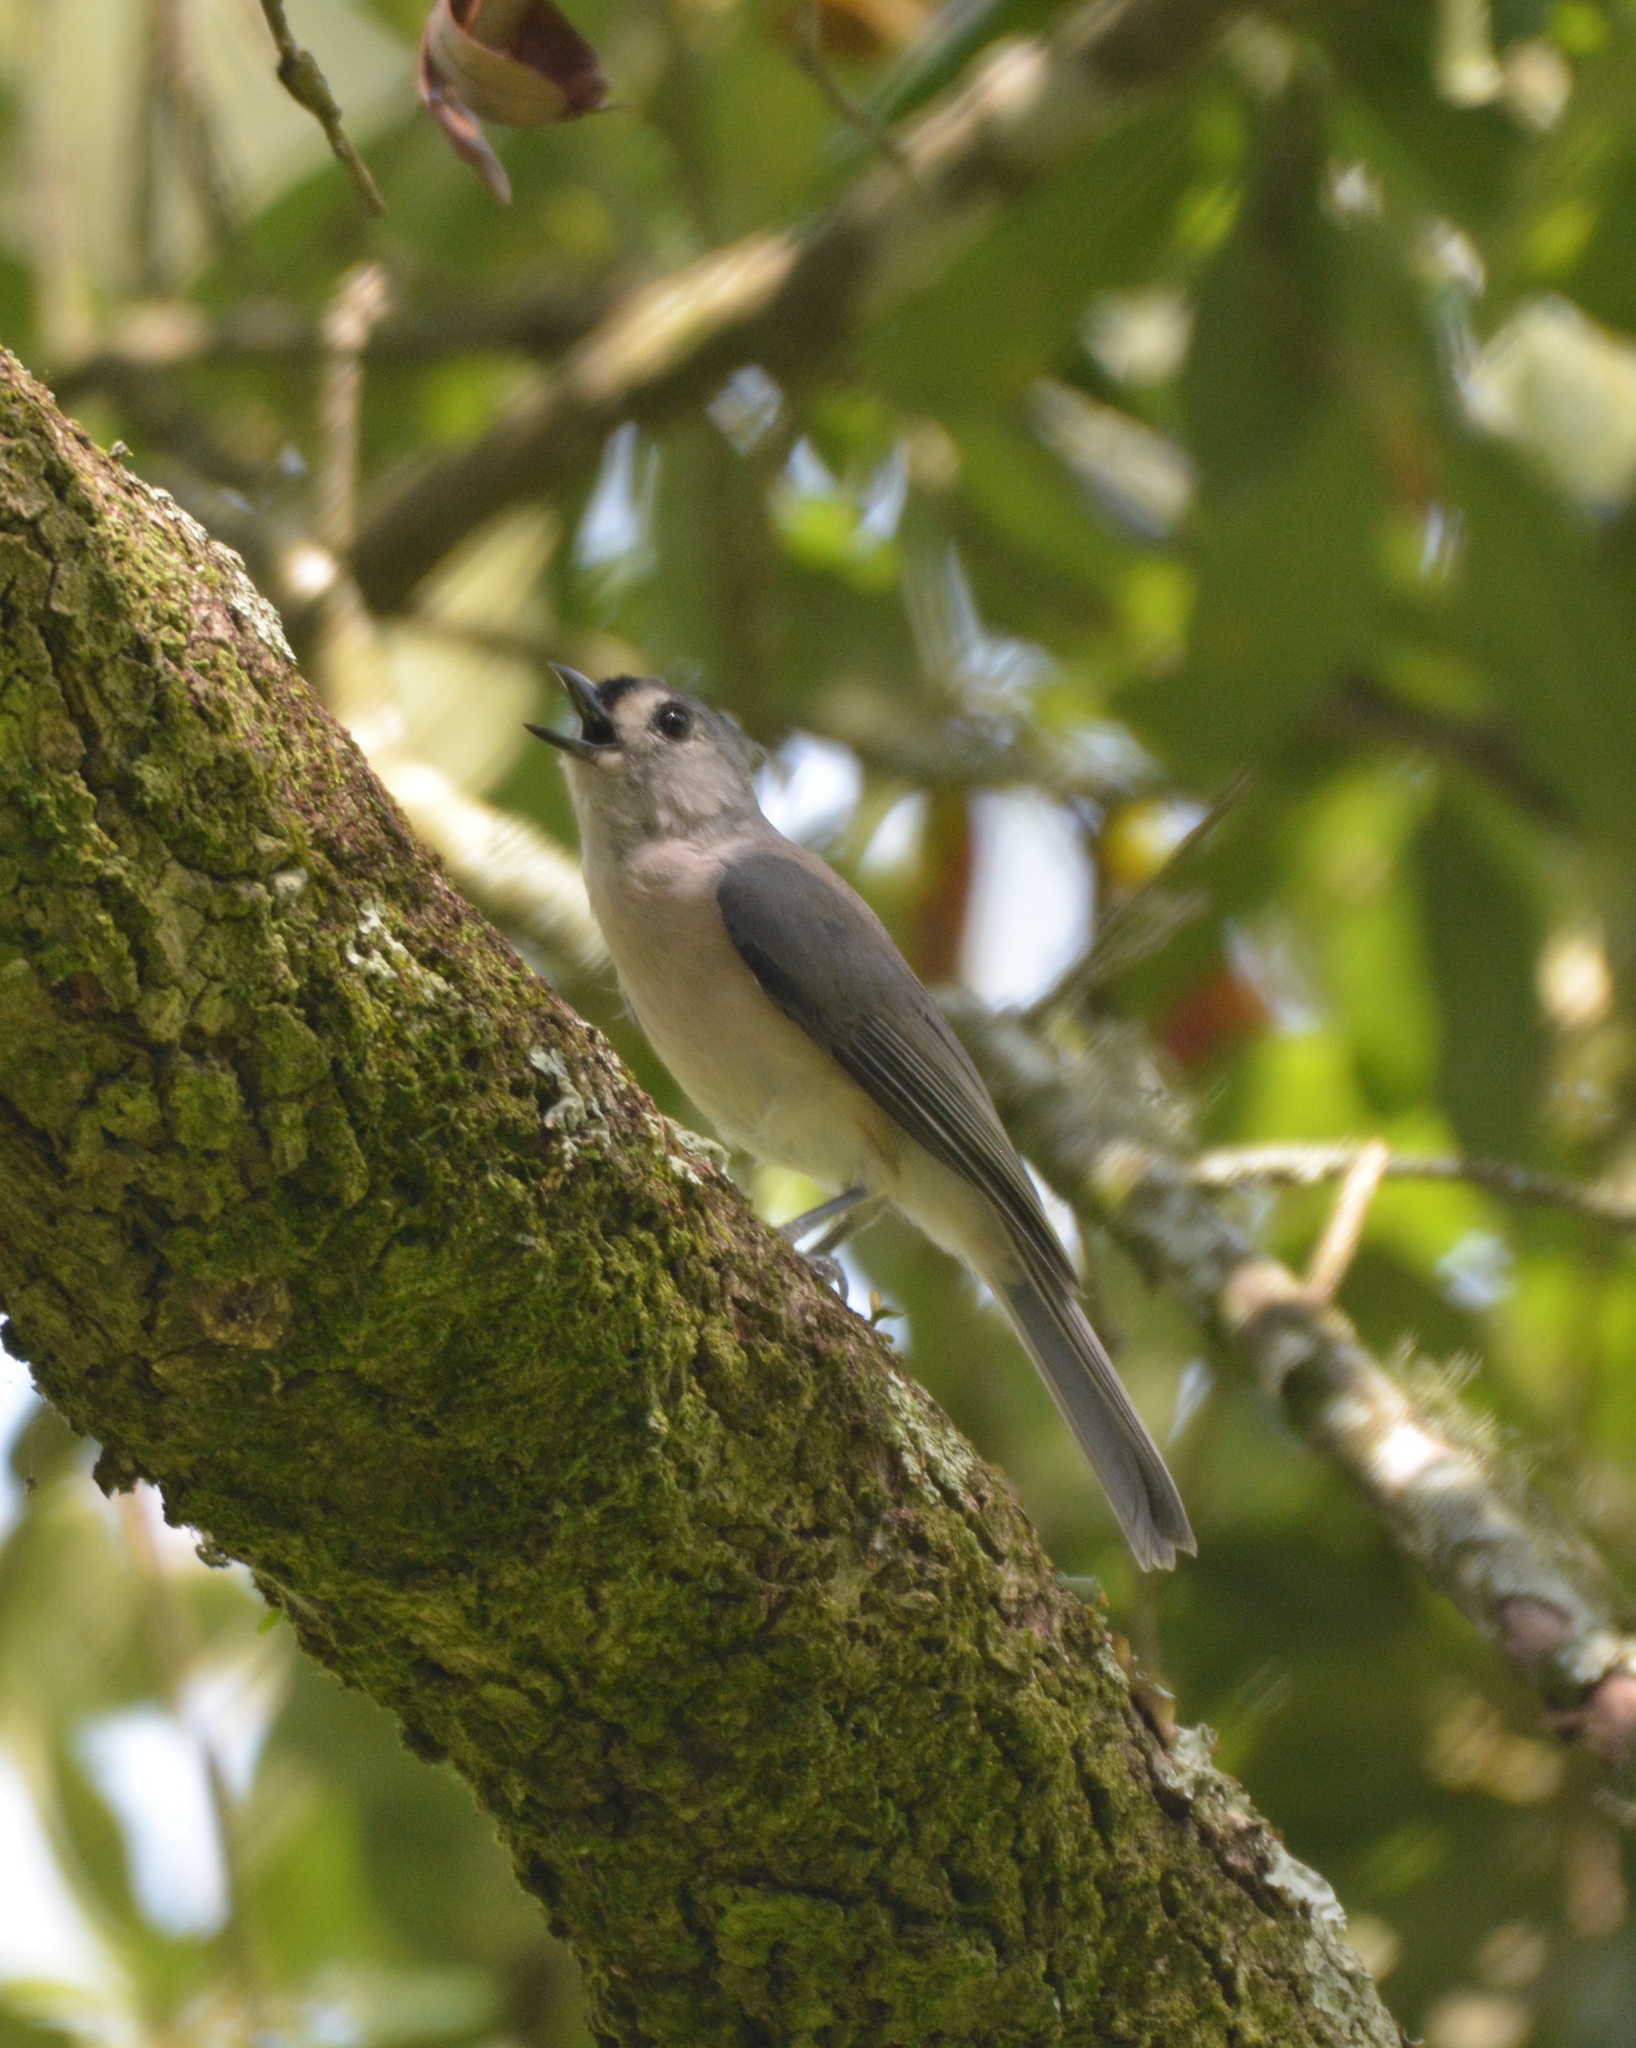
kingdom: Animalia
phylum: Chordata
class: Aves
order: Passeriformes
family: Paridae
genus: Baeolophus
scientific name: Baeolophus bicolor
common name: Tufted titmouse
